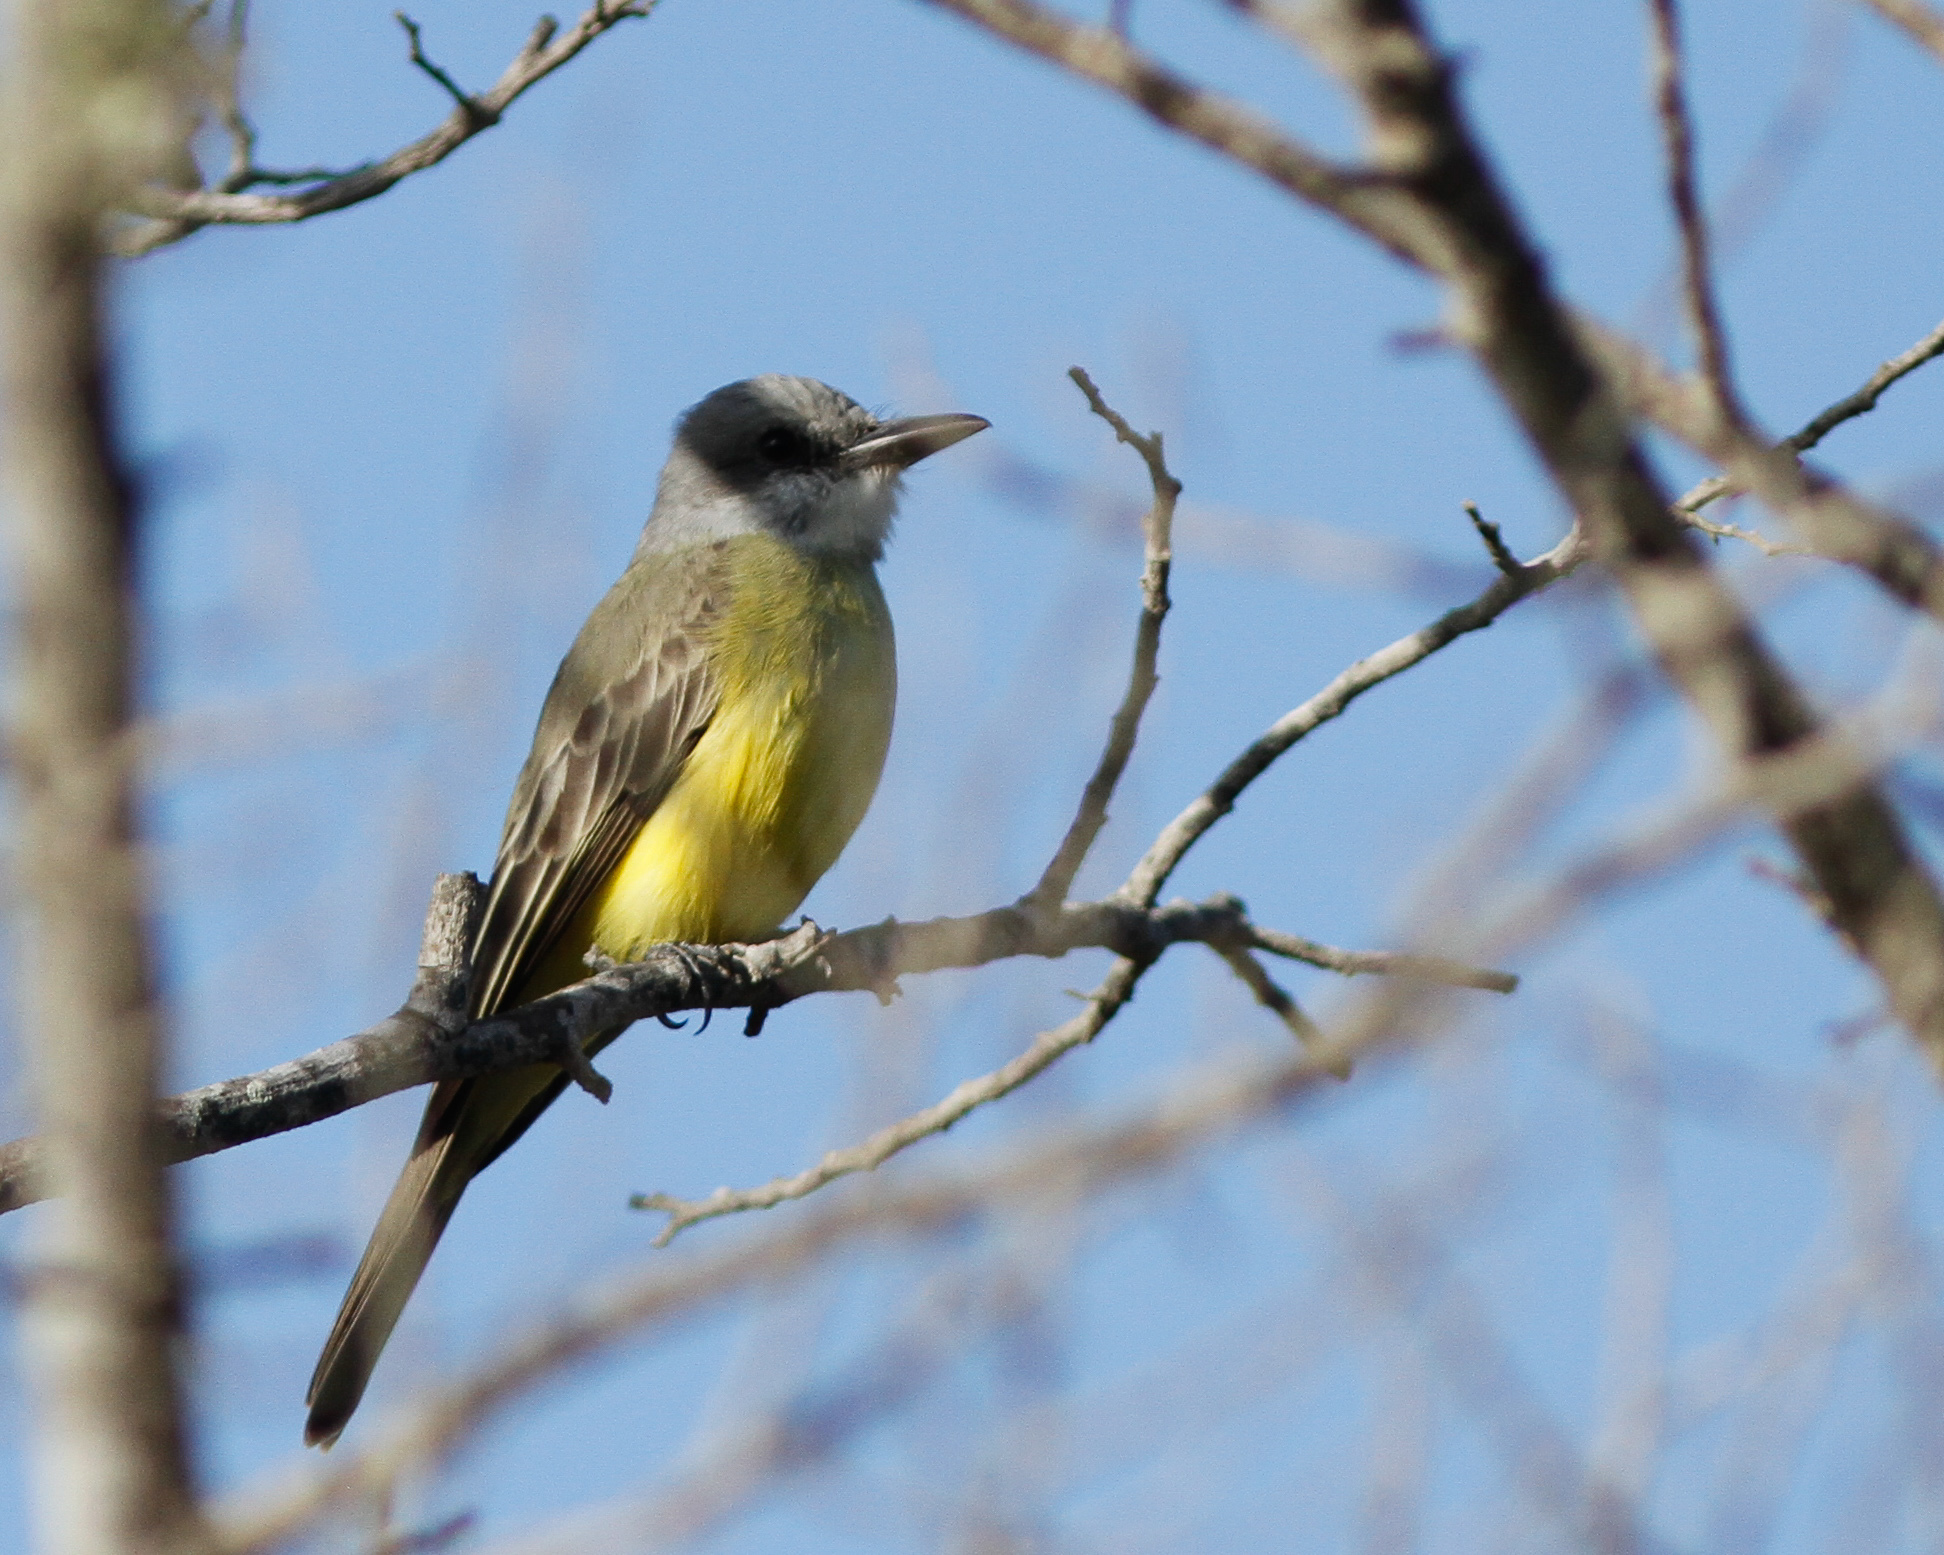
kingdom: Animalia
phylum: Chordata
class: Aves
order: Passeriformes
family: Tyrannidae
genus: Tyrannus
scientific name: Tyrannus melancholicus
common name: Tropical kingbird
